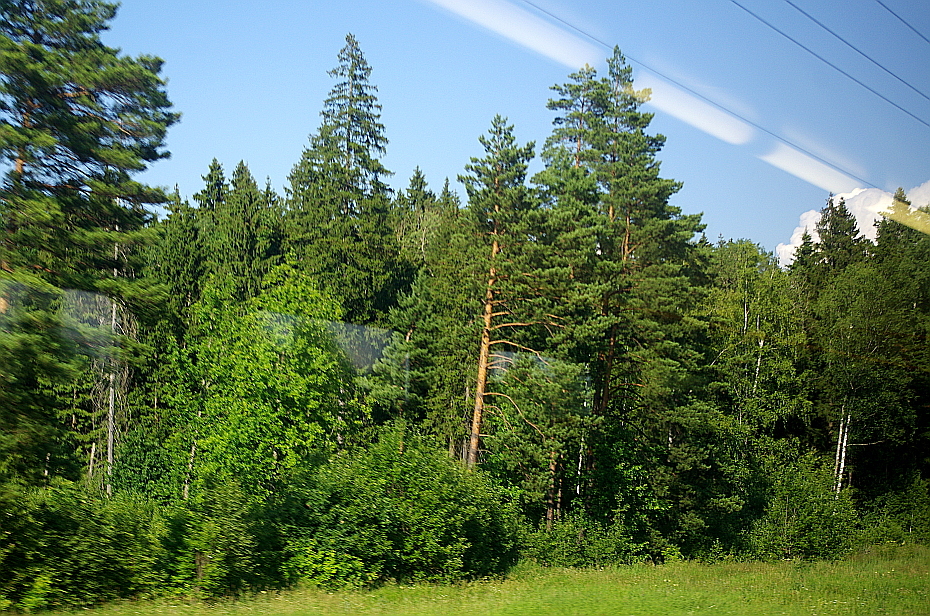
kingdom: Plantae
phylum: Tracheophyta
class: Pinopsida
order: Pinales
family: Pinaceae
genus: Pinus
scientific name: Pinus sylvestris
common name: Scots pine
